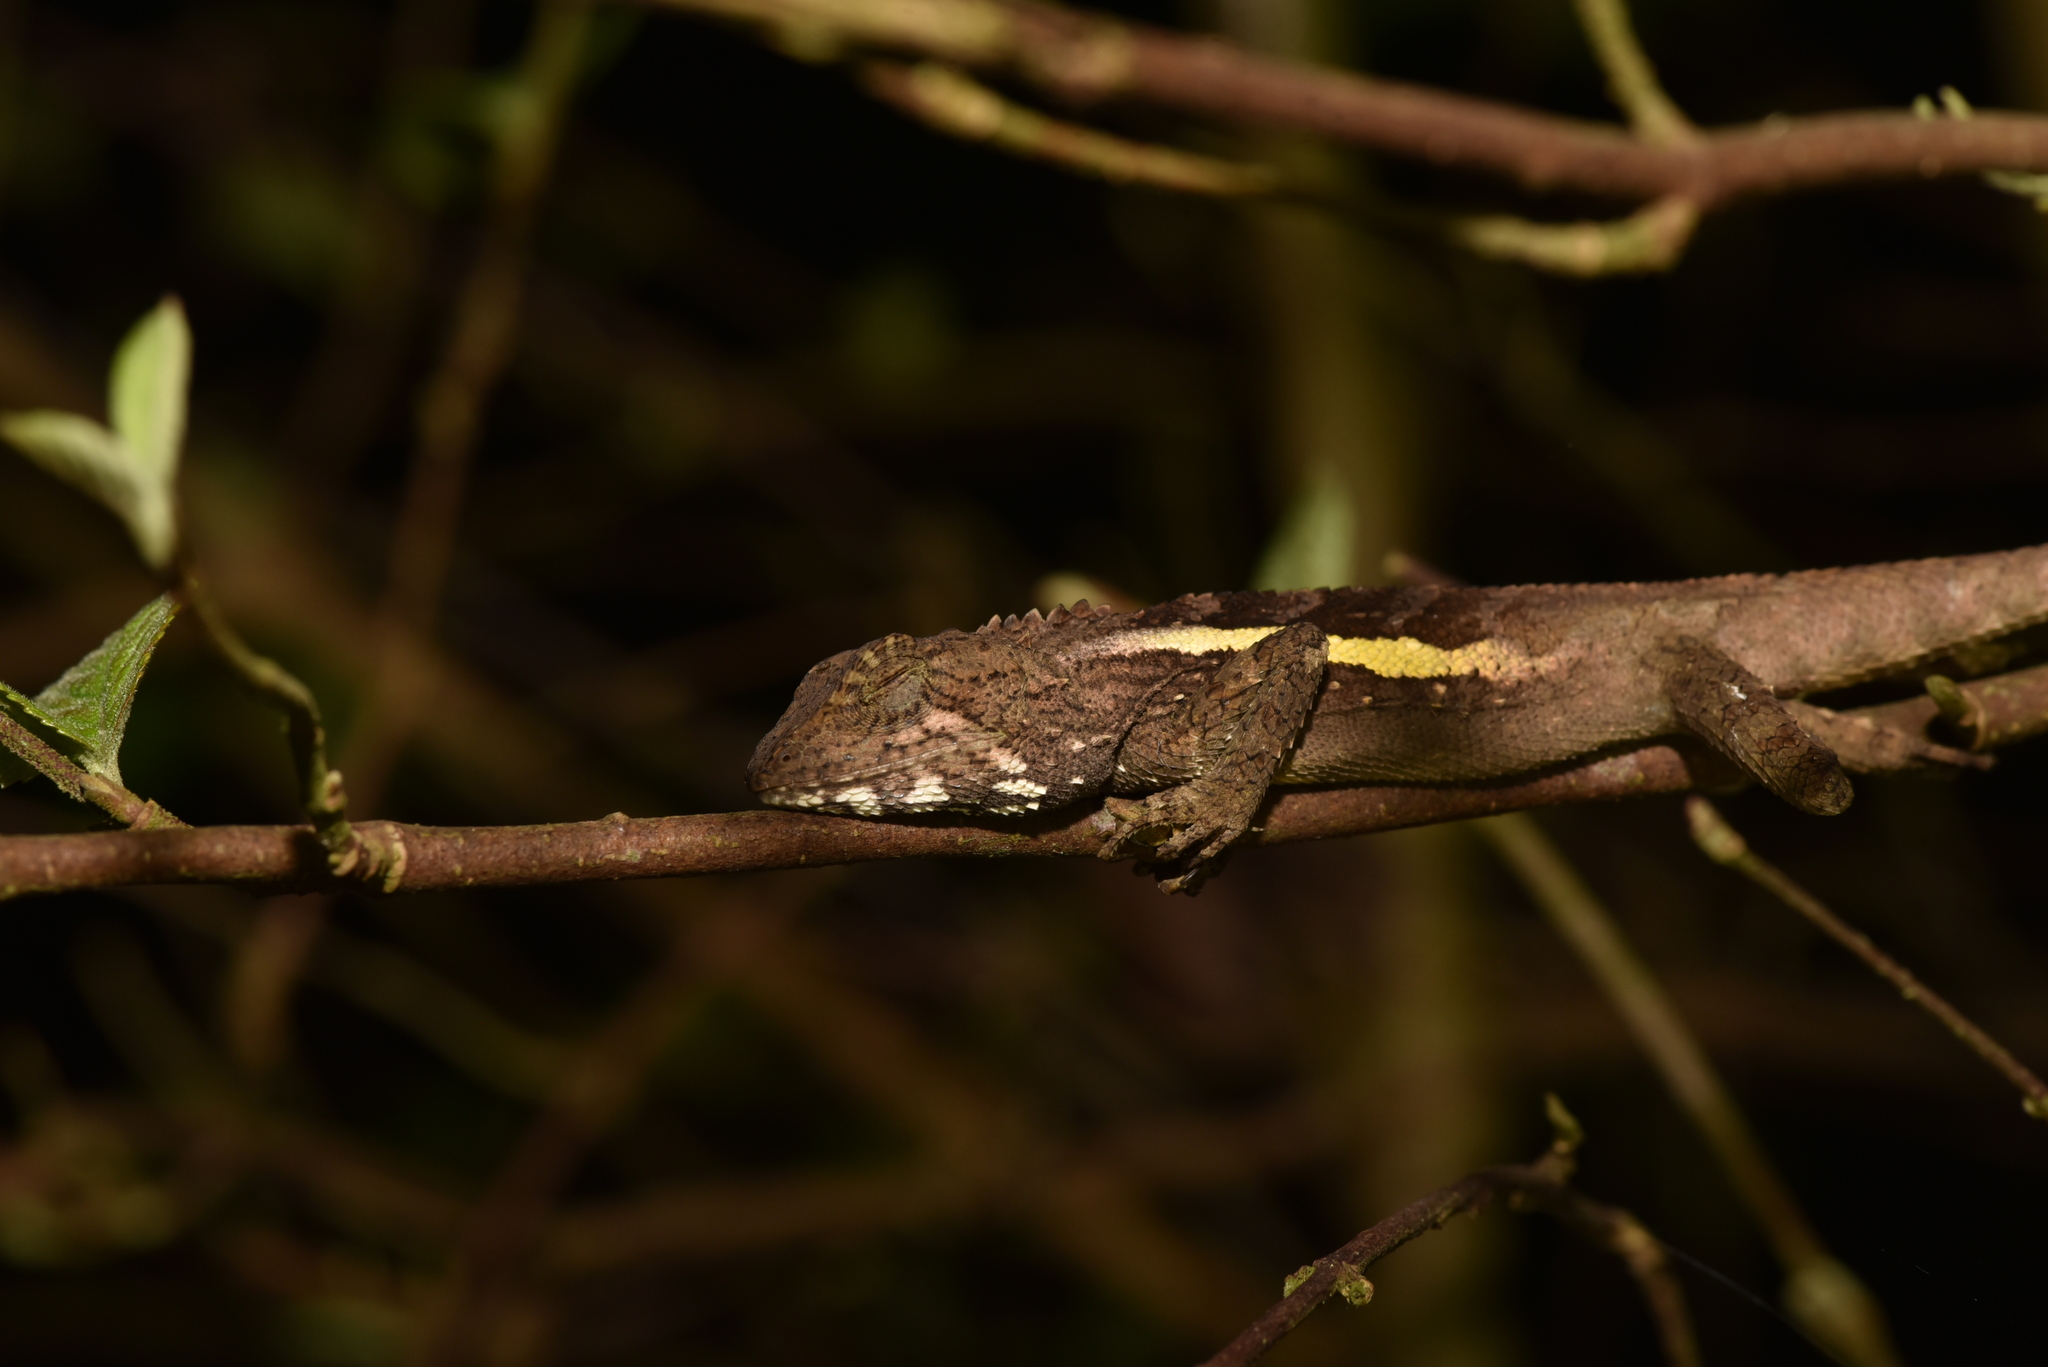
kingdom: Animalia
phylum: Chordata
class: Squamata
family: Agamidae
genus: Diploderma
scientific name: Diploderma swinhonis
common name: Taiwan japalure
